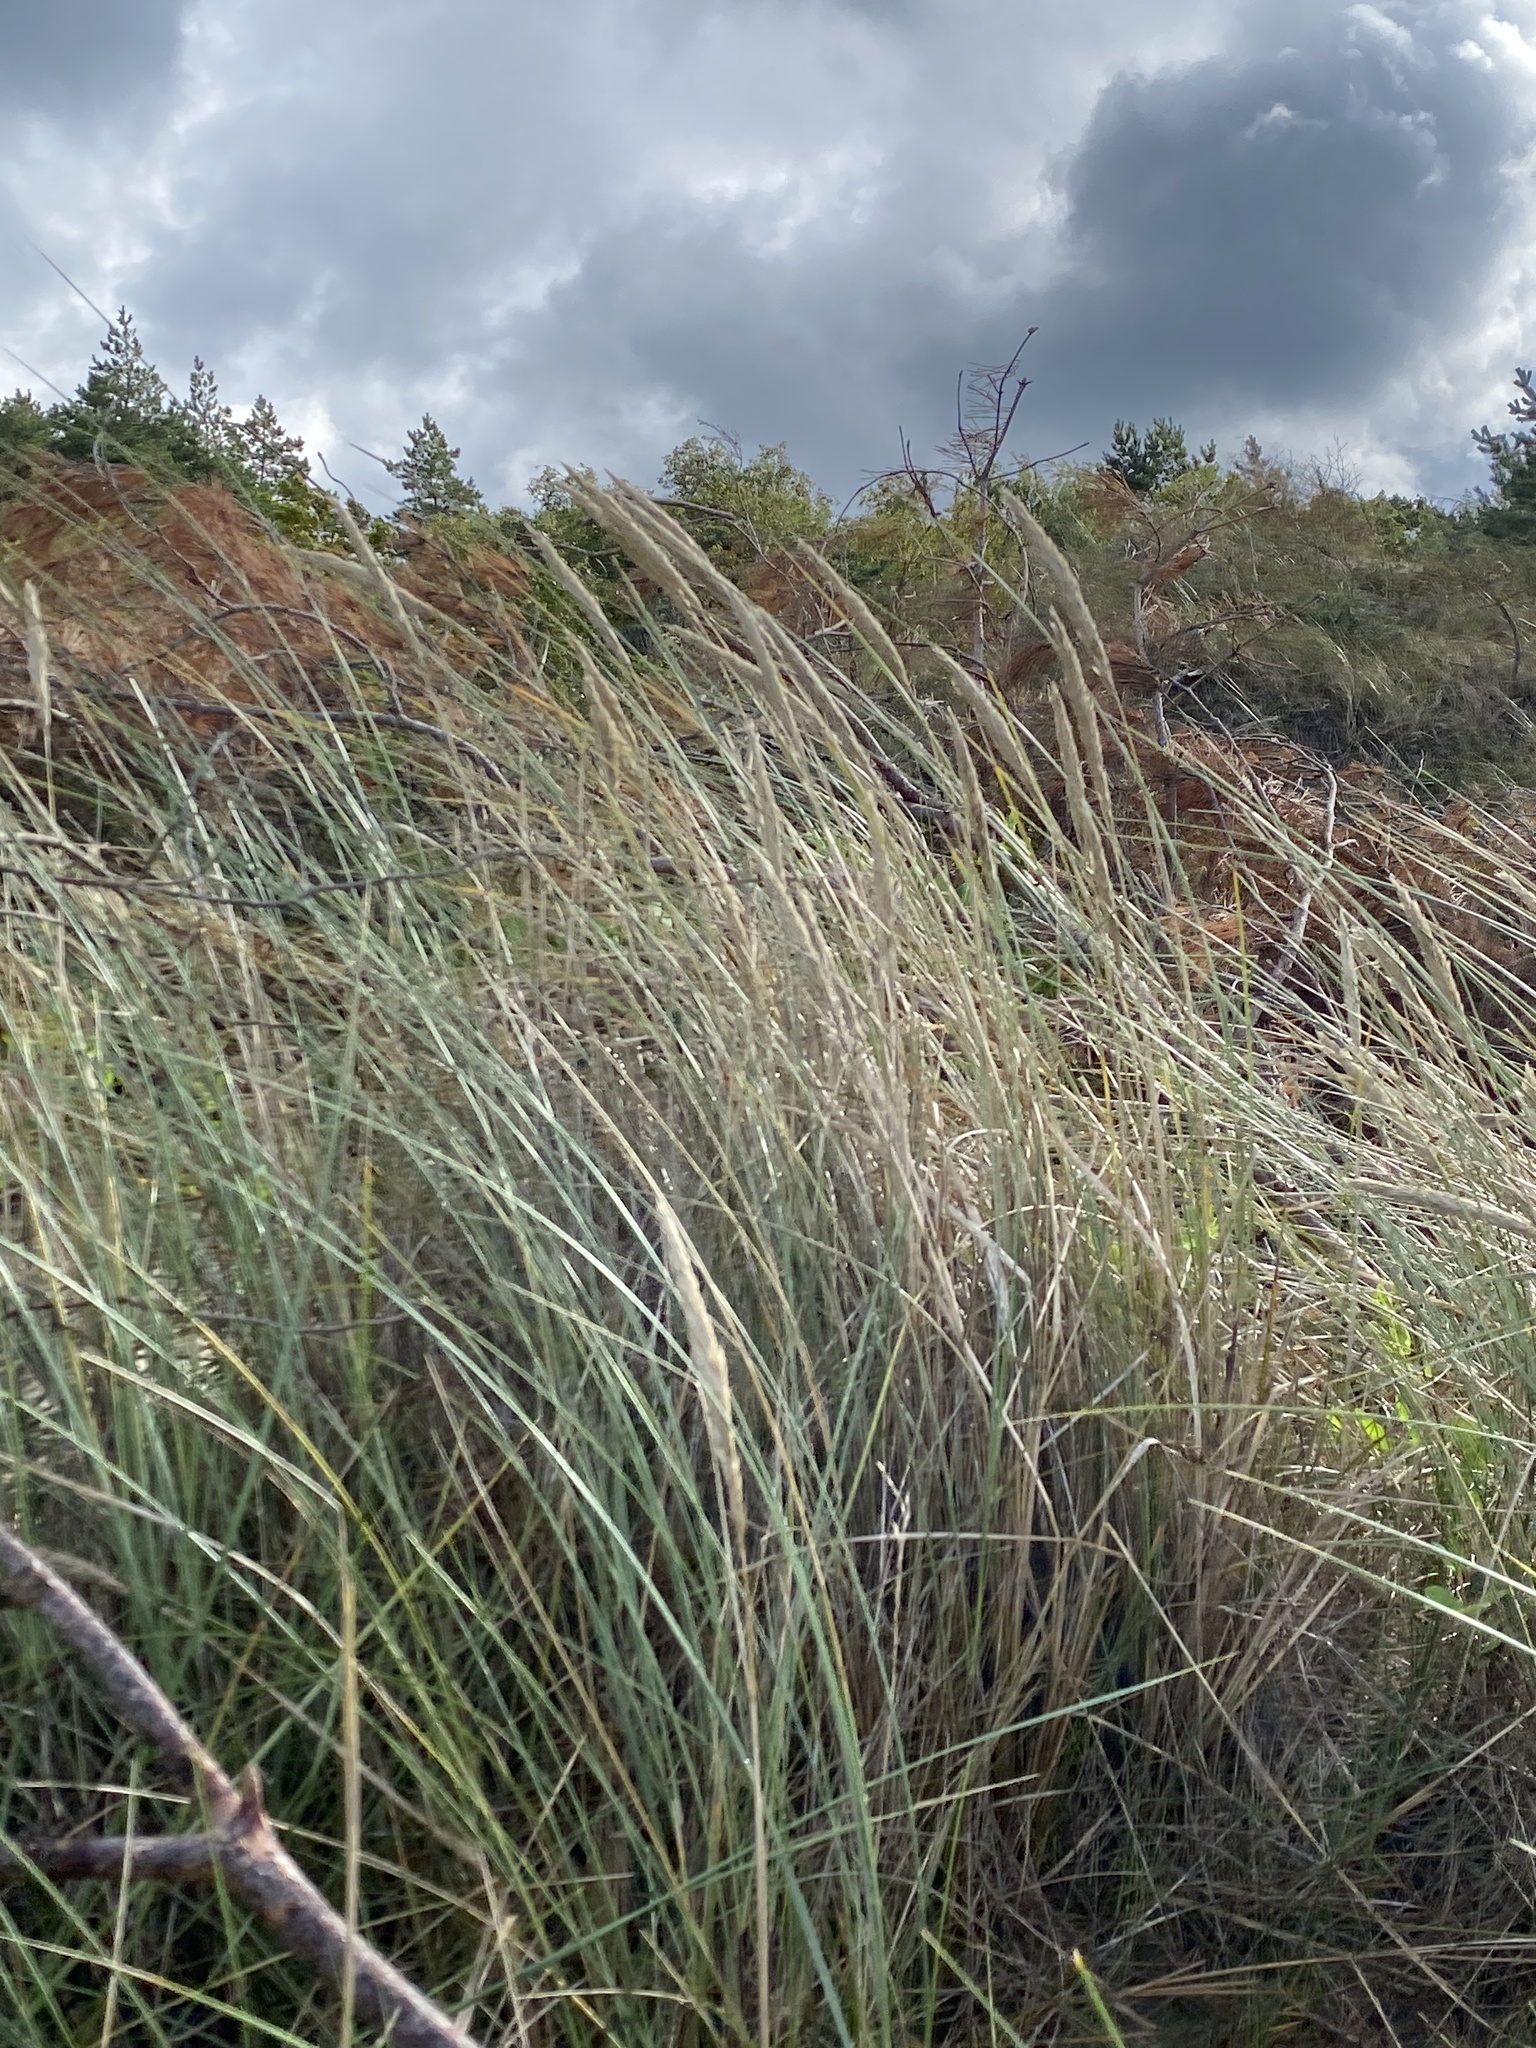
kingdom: Plantae
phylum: Tracheophyta
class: Liliopsida
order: Poales
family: Poaceae
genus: Calamagrostis
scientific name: Calamagrostis arenaria
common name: European beachgrass
